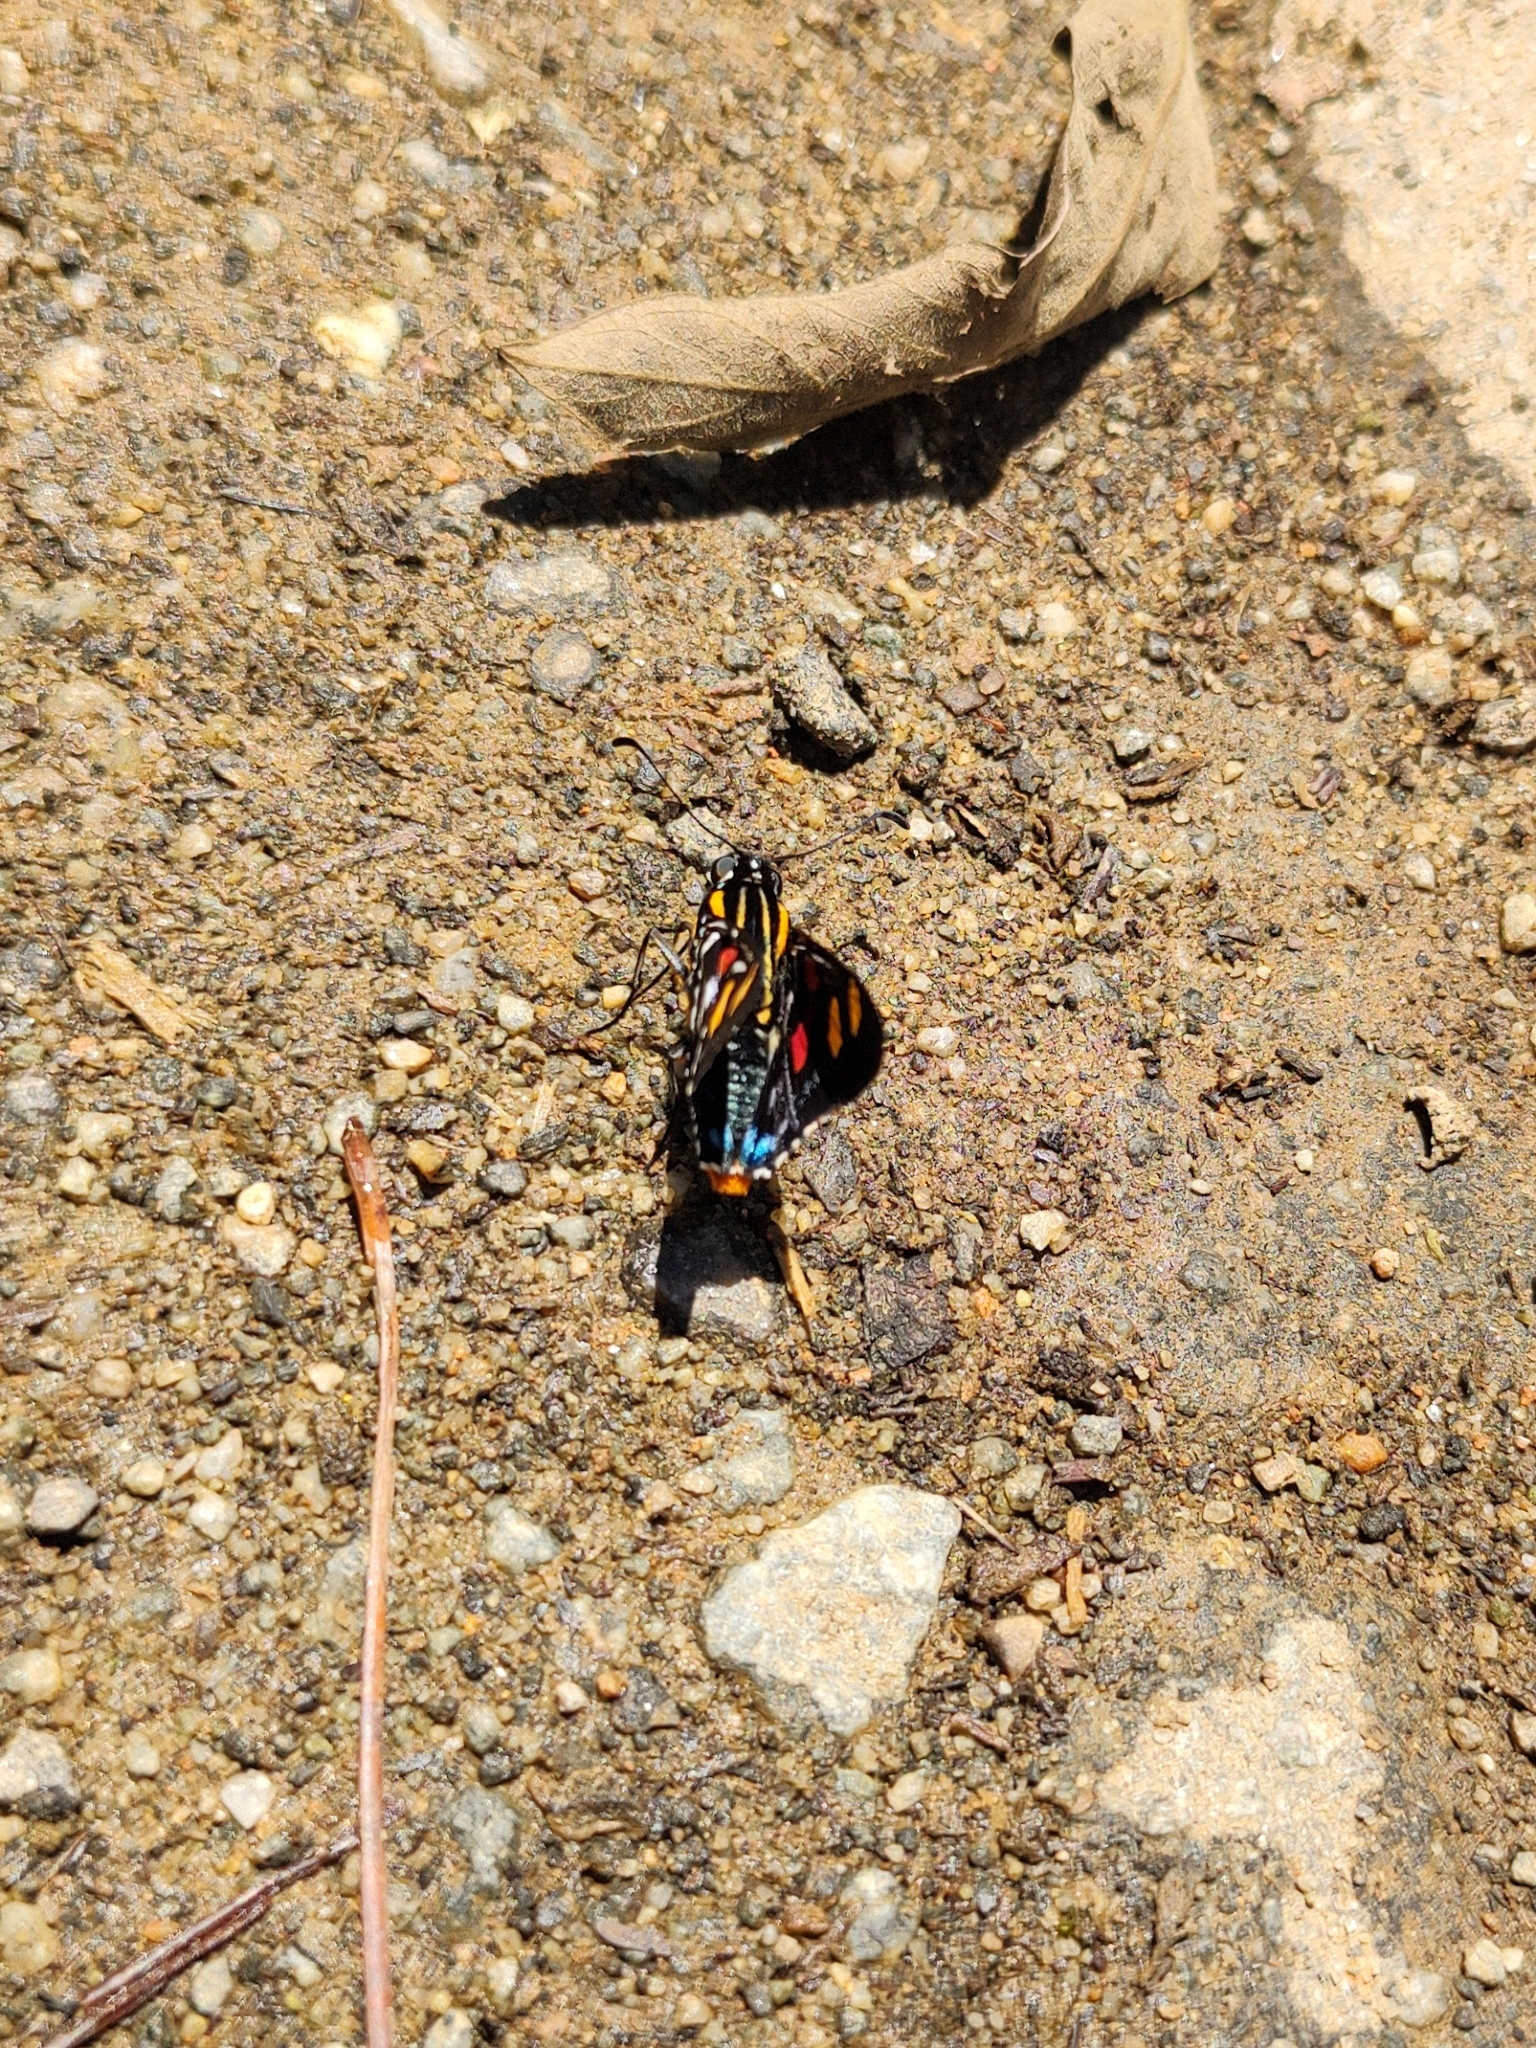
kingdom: Animalia
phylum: Arthropoda
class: Insecta
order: Lepidoptera
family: Hesperiidae
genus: Mimoniades
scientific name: Mimoniades versicolor
